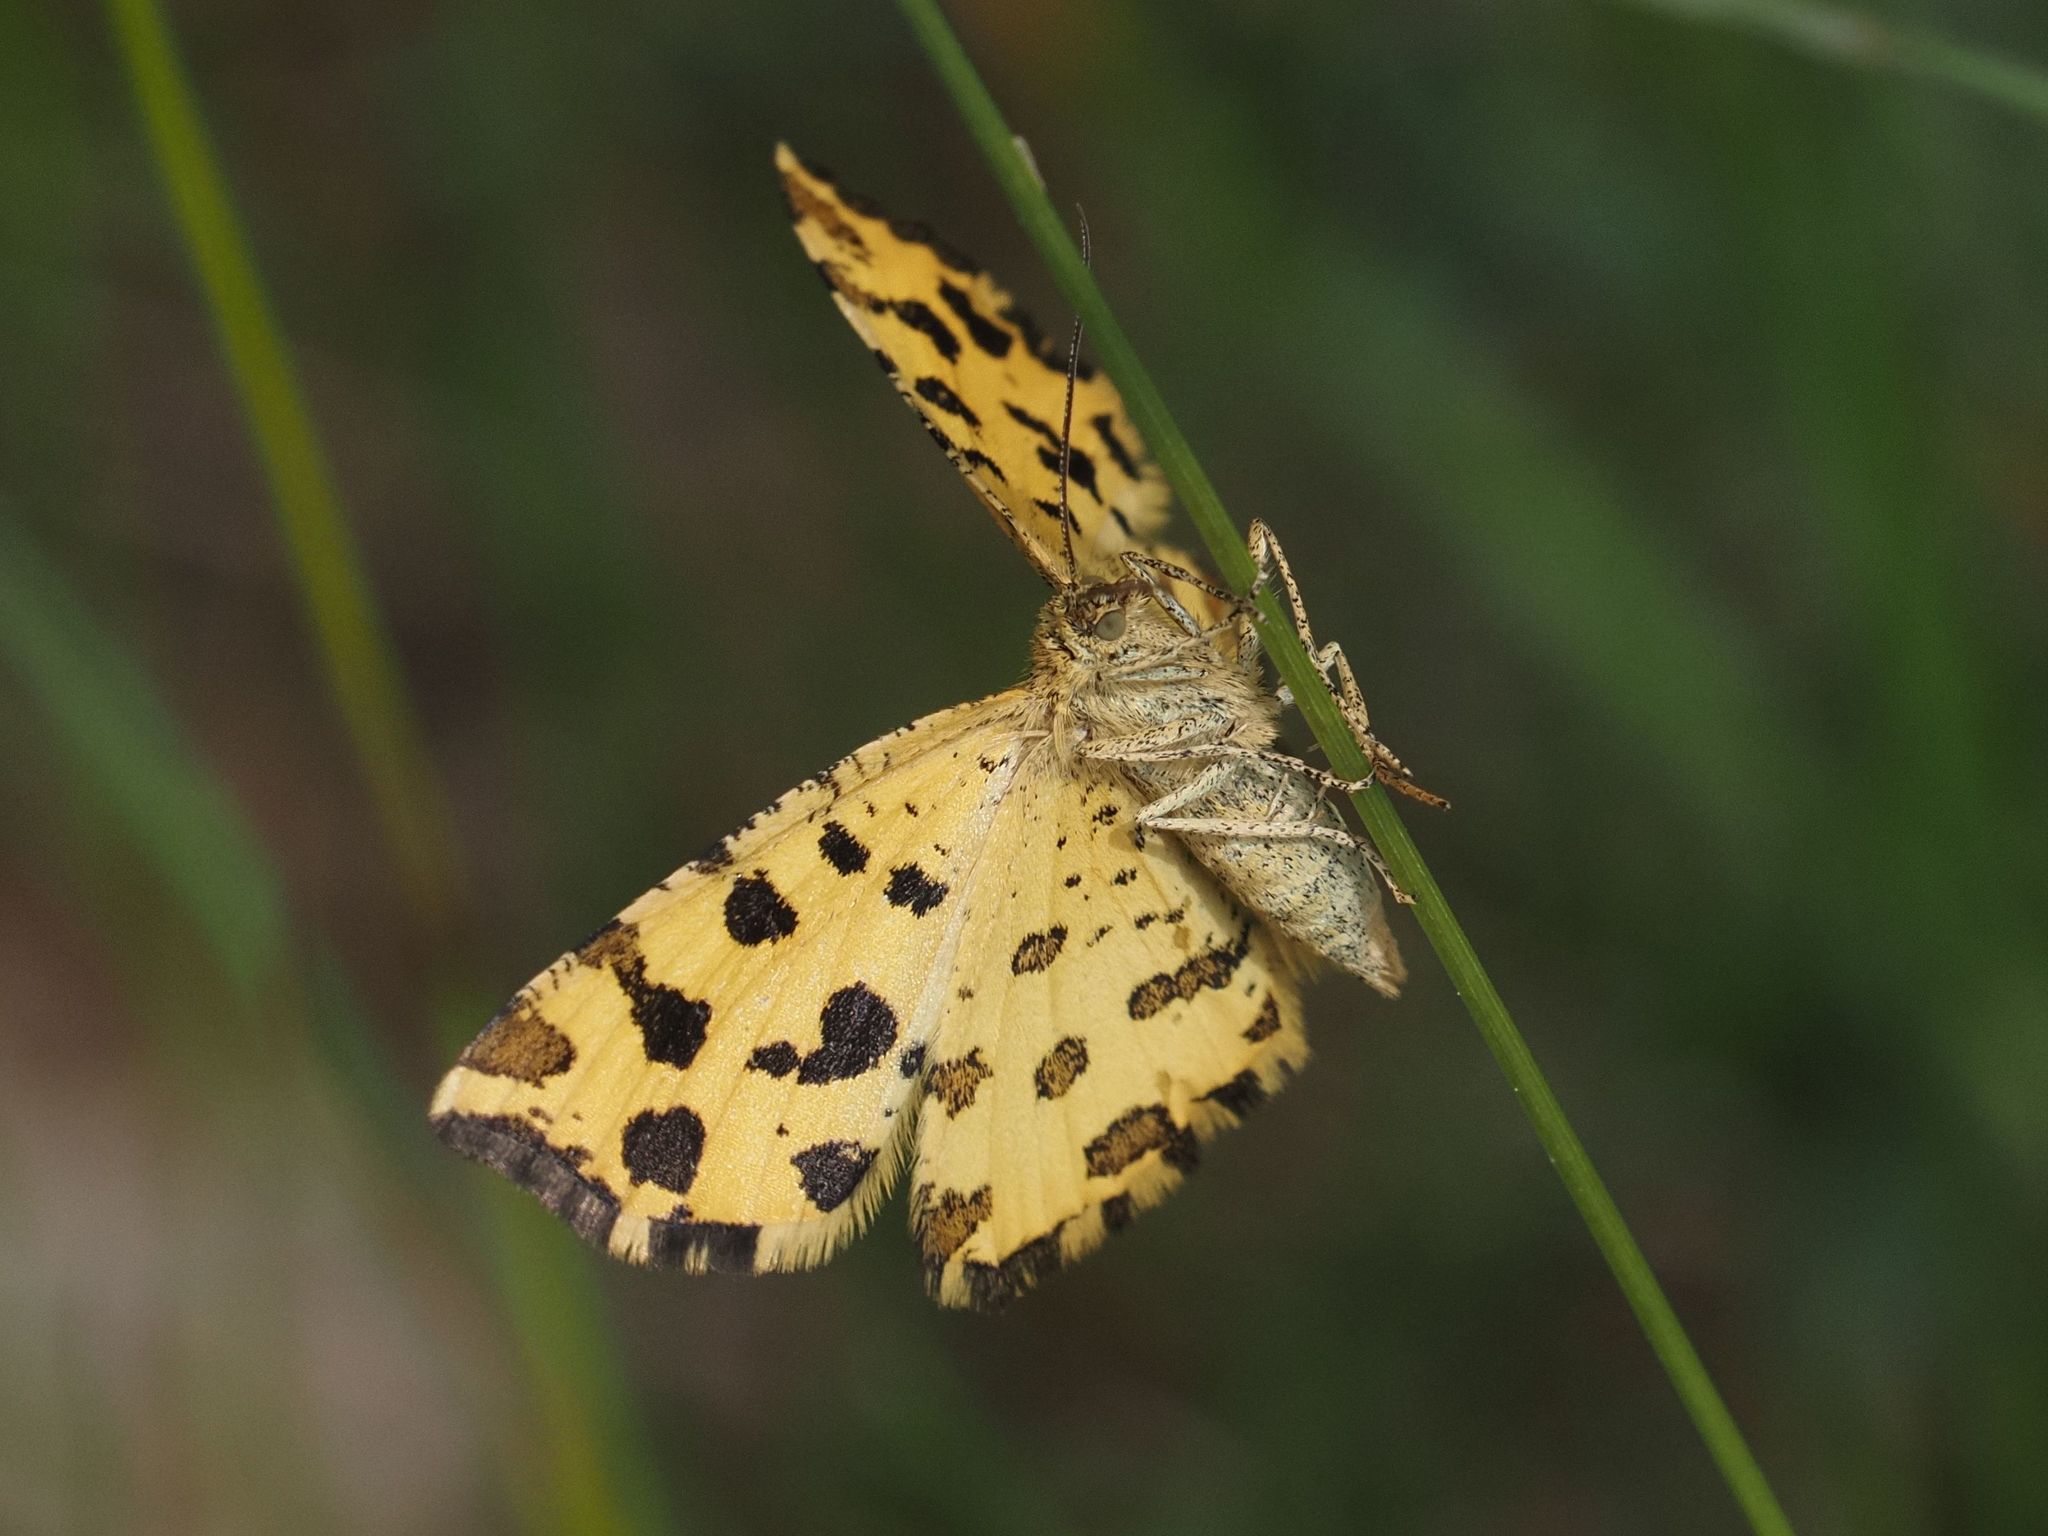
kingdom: Animalia
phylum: Arthropoda
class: Insecta
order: Lepidoptera
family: Geometridae
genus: Pseudopanthera
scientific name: Pseudopanthera macularia
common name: Speckled yellow
